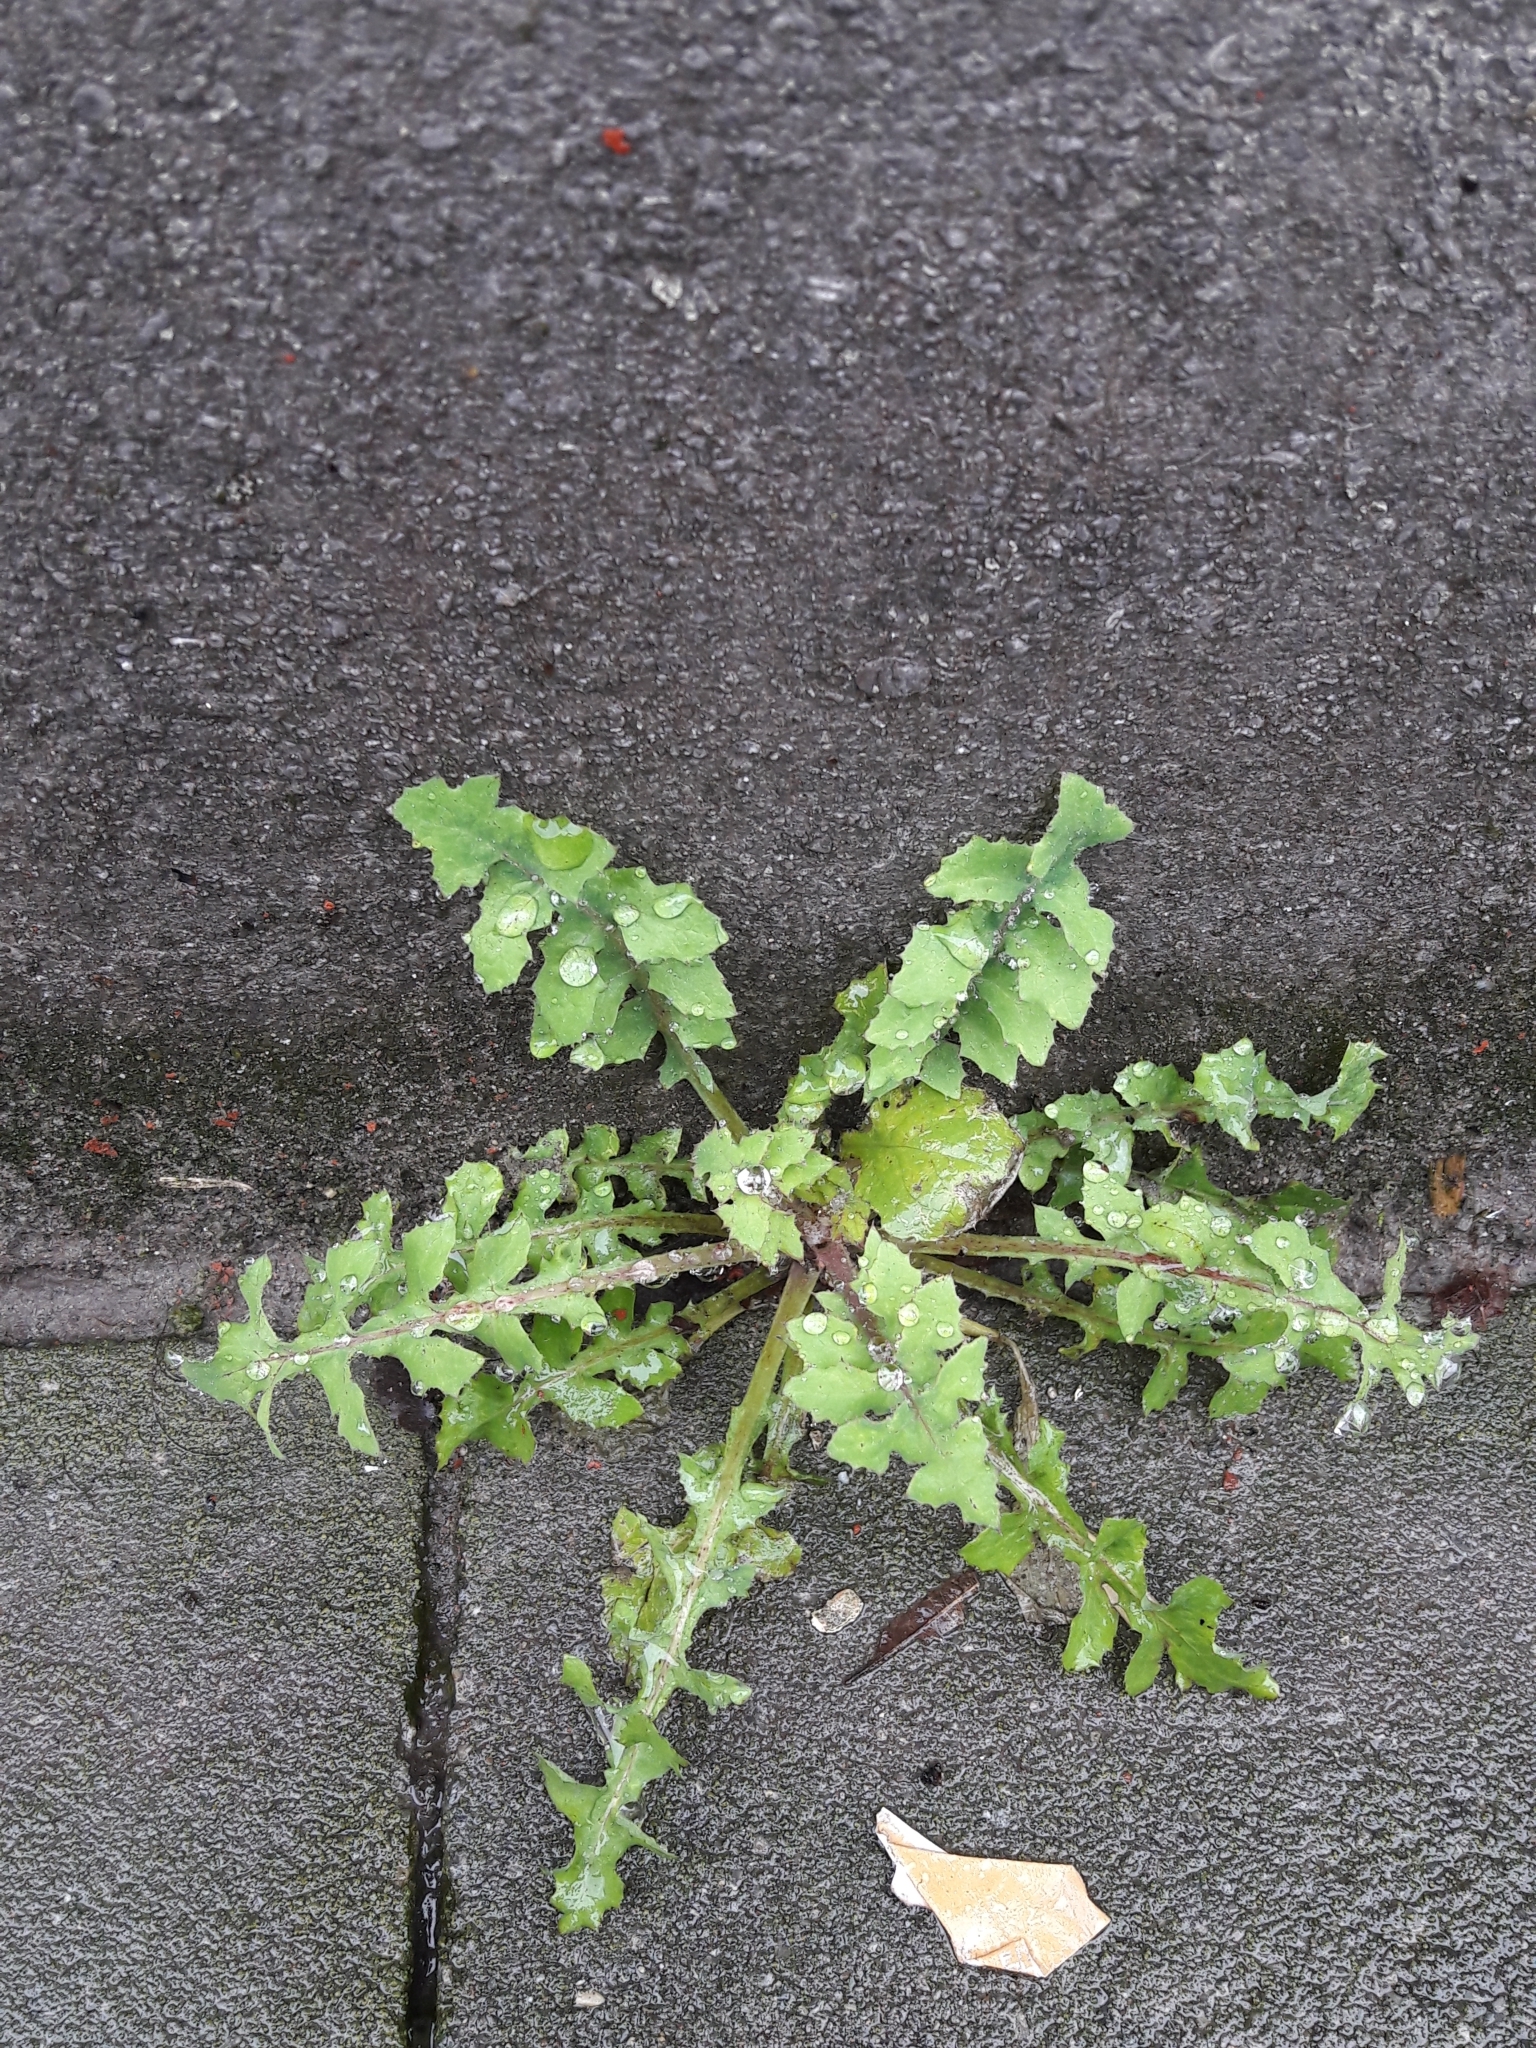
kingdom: Plantae
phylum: Tracheophyta
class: Magnoliopsida
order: Asterales
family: Asteraceae
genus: Sonchus
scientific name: Sonchus oleraceus
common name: Common sowthistle
